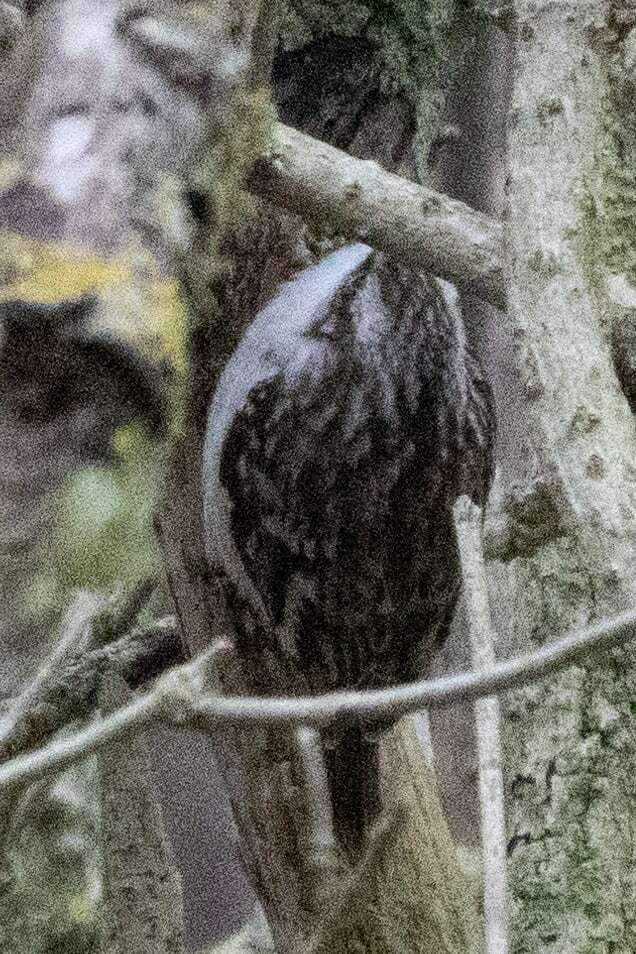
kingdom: Animalia
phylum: Chordata
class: Aves
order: Passeriformes
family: Certhiidae
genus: Certhia
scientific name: Certhia brachydactyla
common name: Short-toed treecreeper
